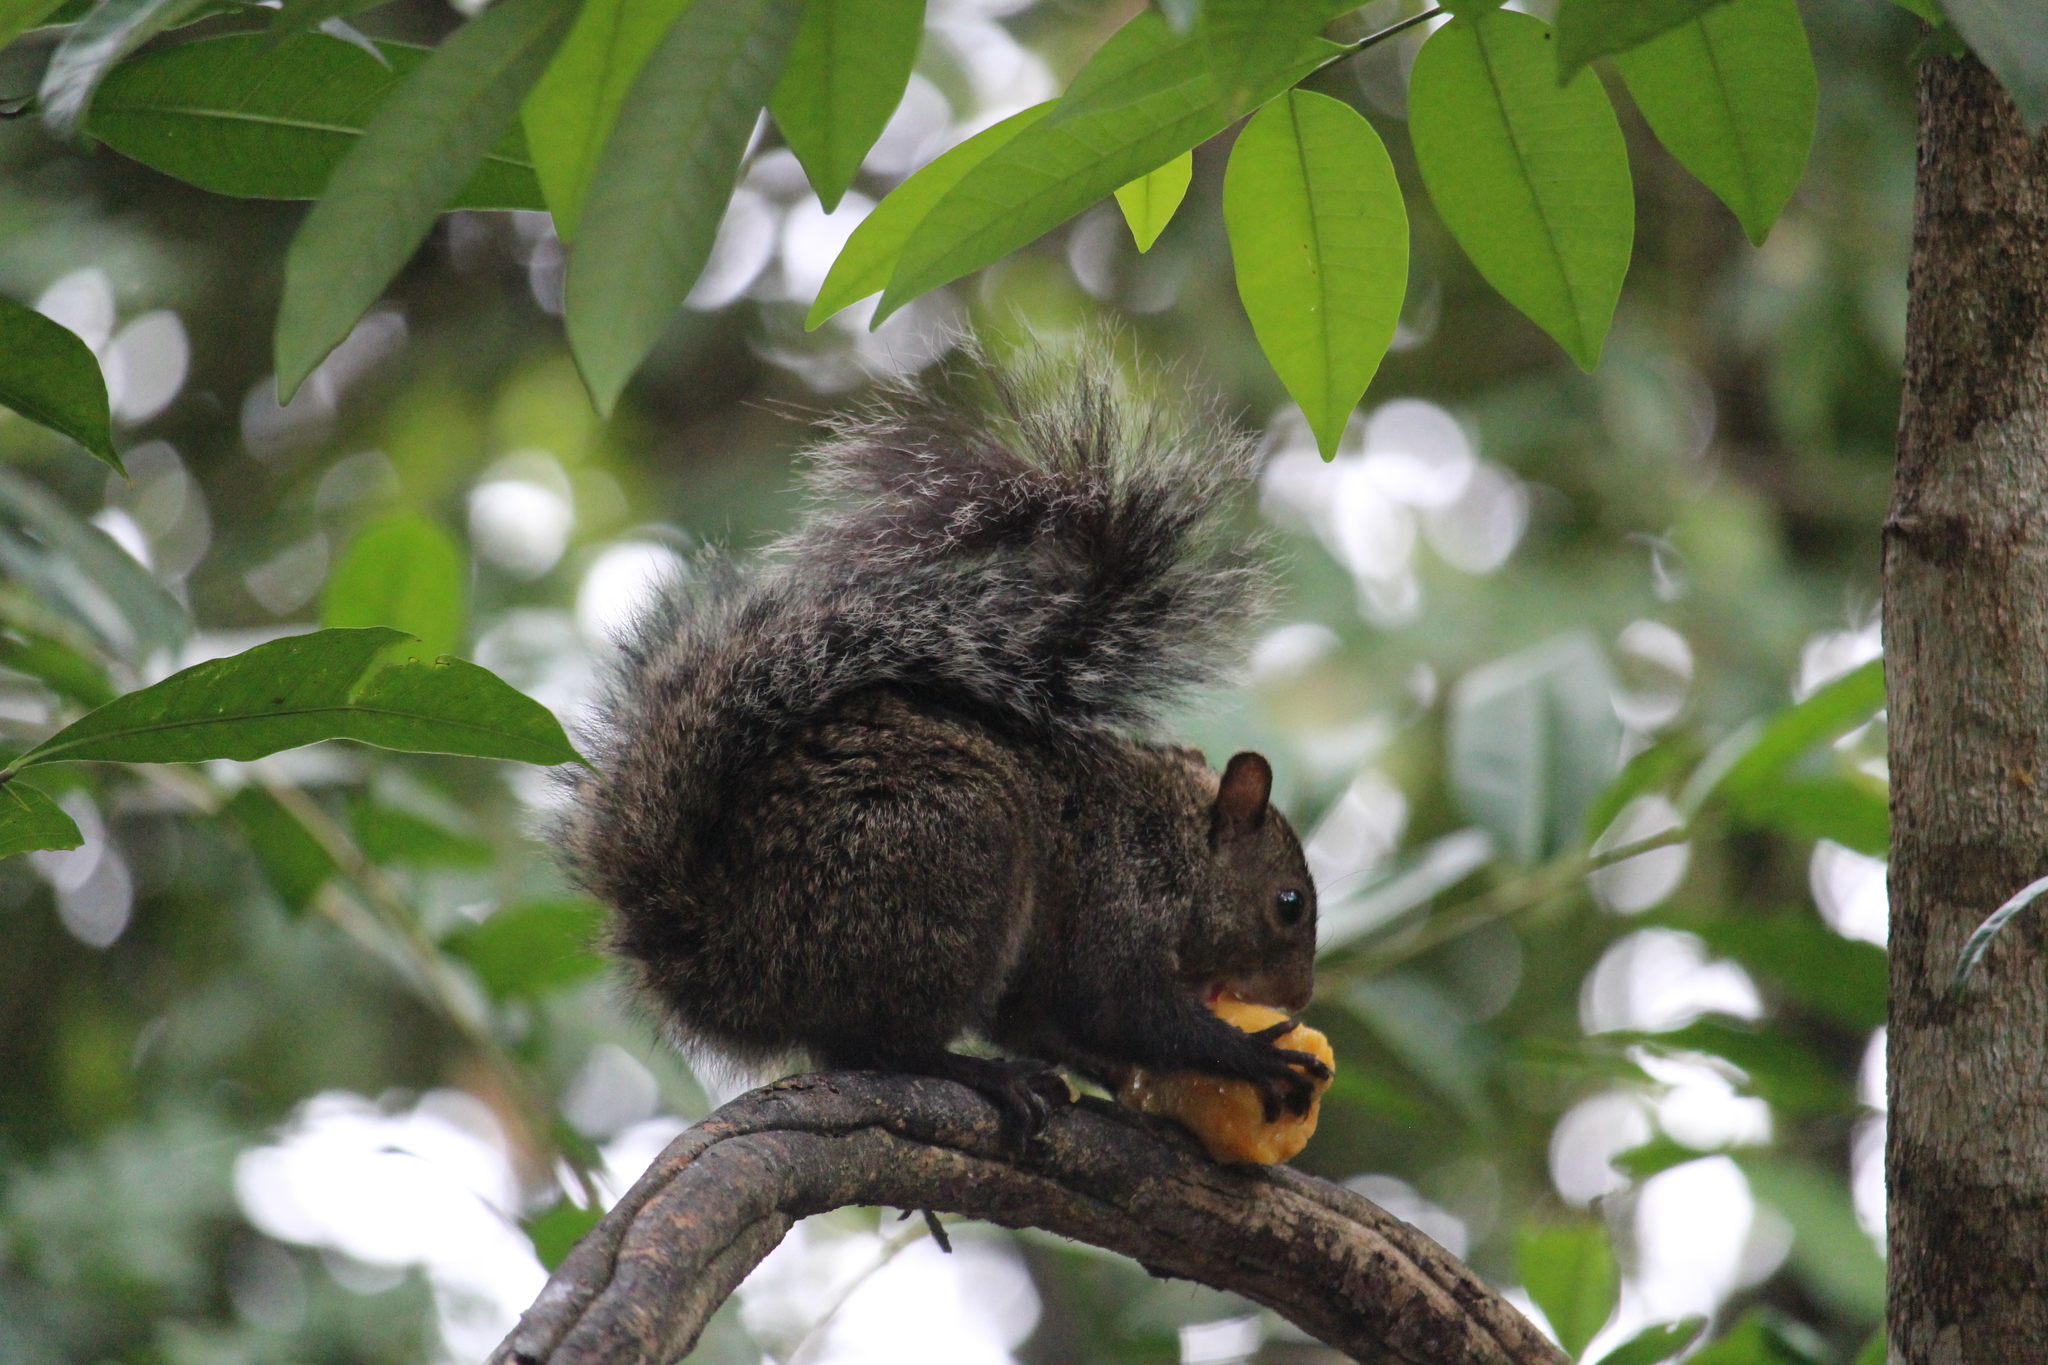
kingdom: Animalia
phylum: Chordata
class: Mammalia
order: Rodentia
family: Sciuridae
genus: Sciurus
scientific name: Sciurus yucatanensis
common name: Yucatan squirrel
